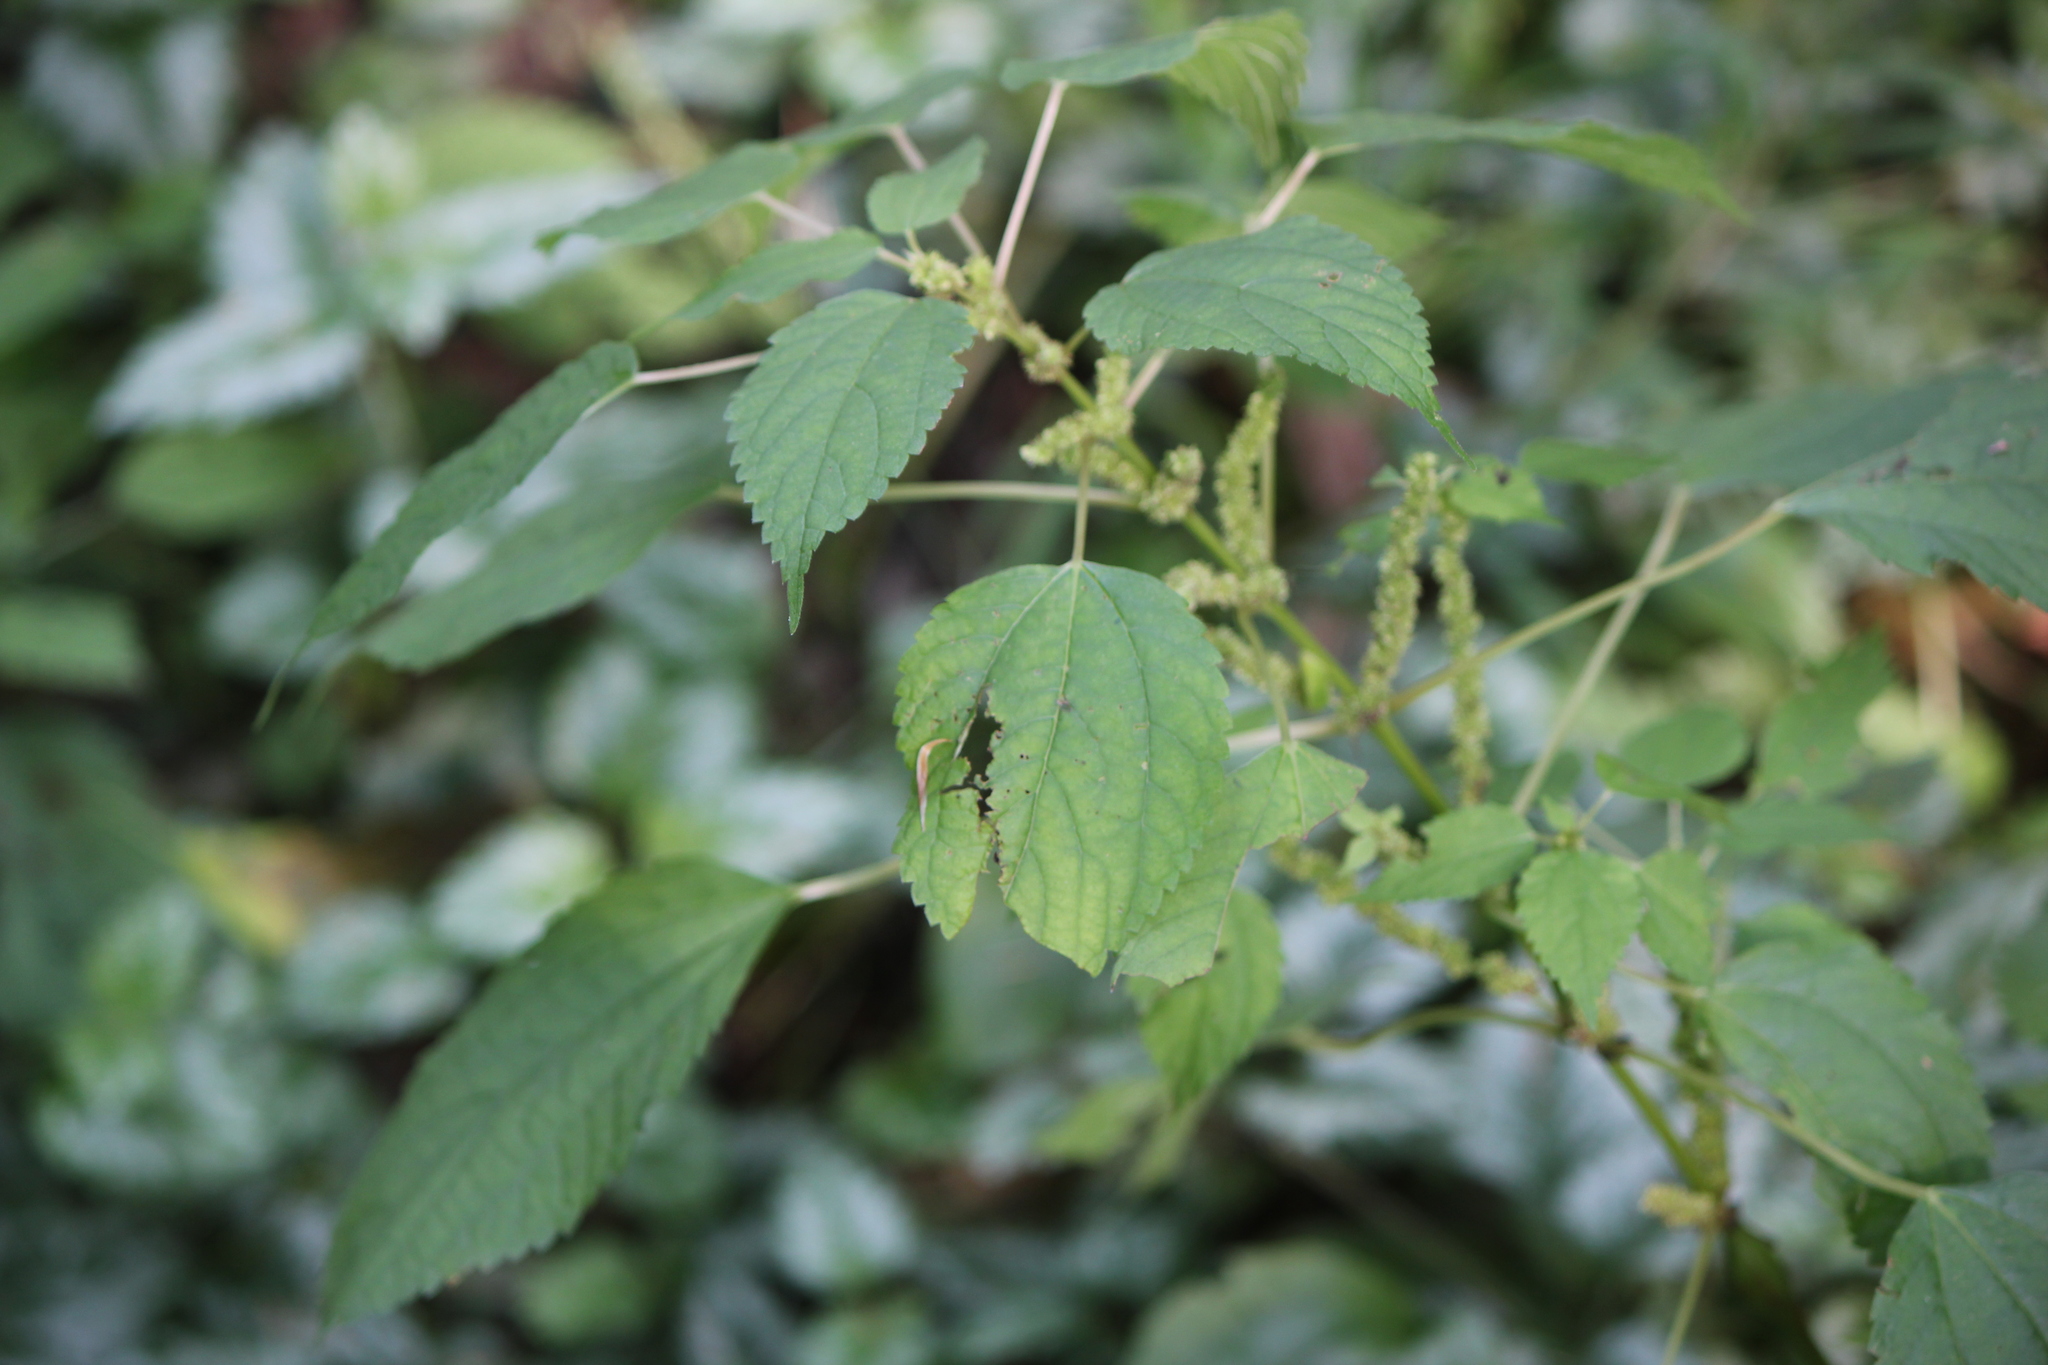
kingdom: Plantae
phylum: Tracheophyta
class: Magnoliopsida
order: Rosales
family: Urticaceae
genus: Boehmeria
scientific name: Boehmeria cylindrica
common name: Bog-hemp
